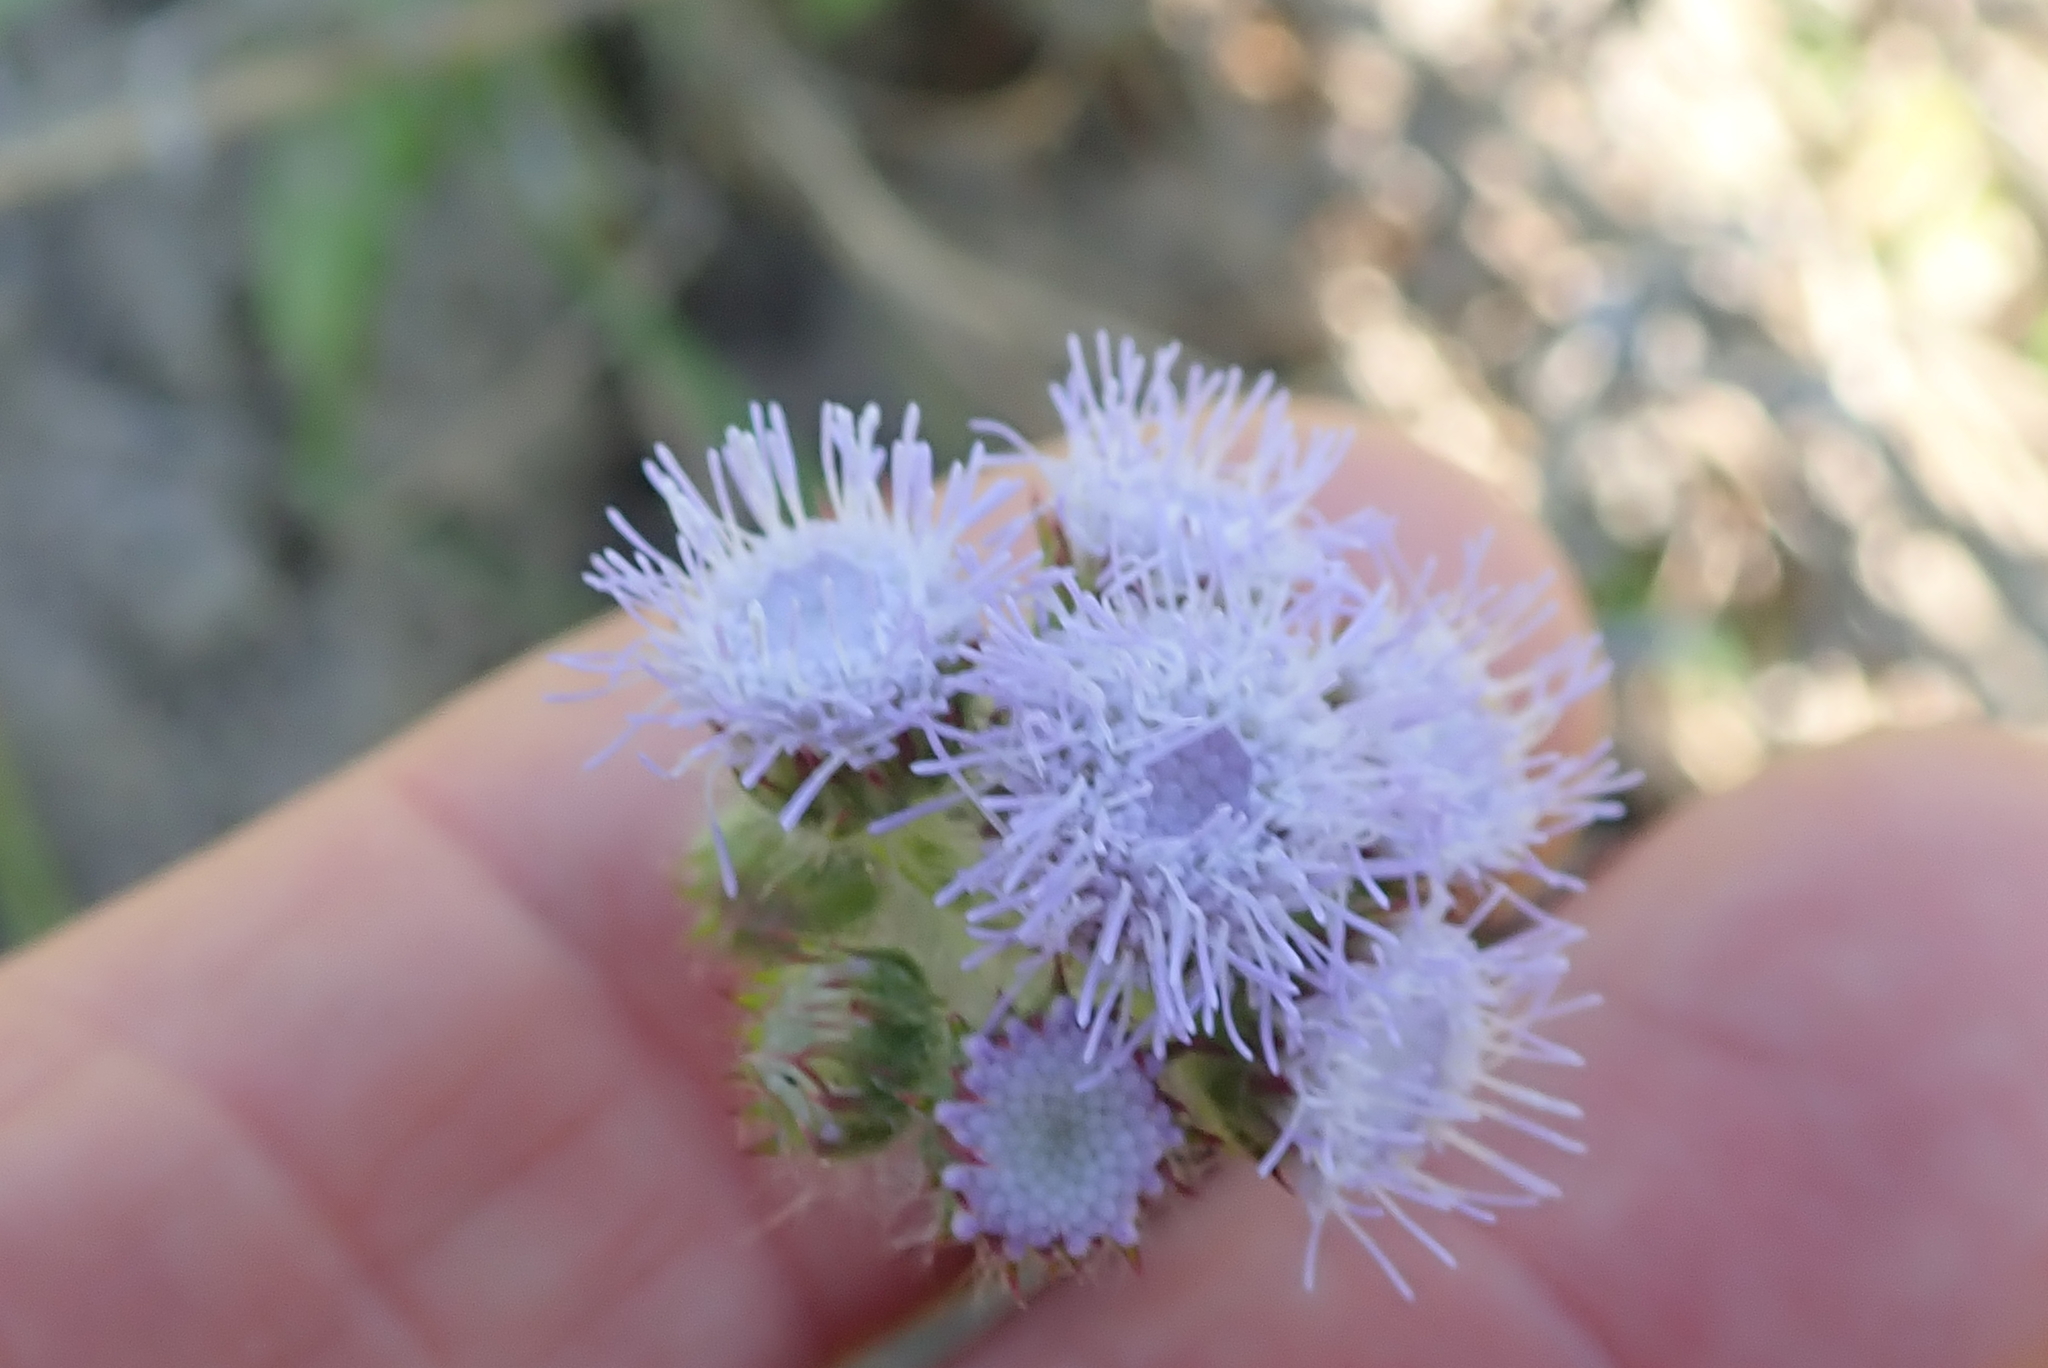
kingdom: Plantae
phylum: Tracheophyta
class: Magnoliopsida
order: Asterales
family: Asteraceae
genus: Ageratum
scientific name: Ageratum houstonianum
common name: Bluemink
